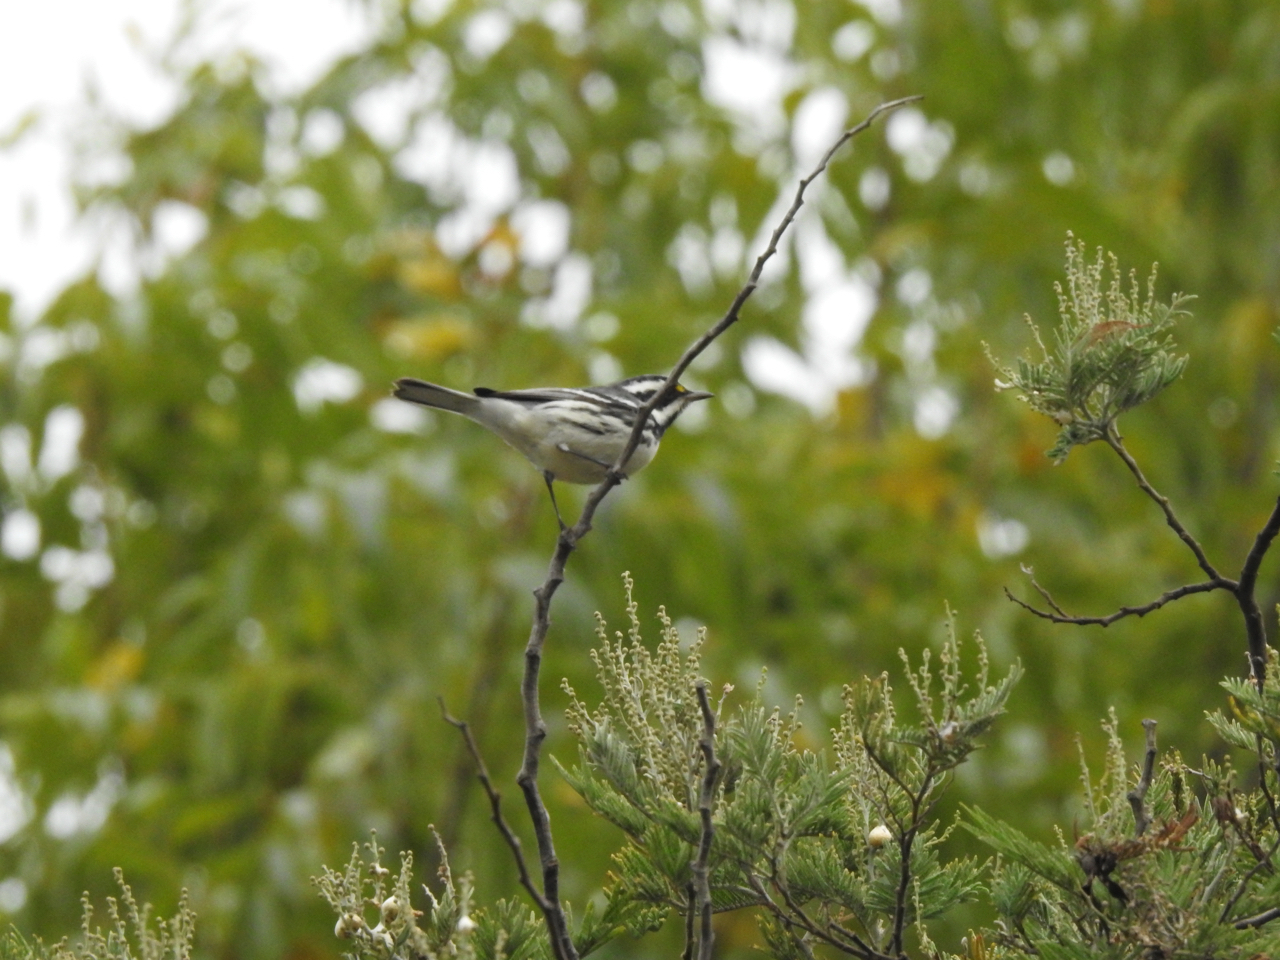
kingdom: Animalia
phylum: Chordata
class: Aves
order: Passeriformes
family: Parulidae
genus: Setophaga
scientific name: Setophaga nigrescens
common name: Black-throated gray warbler
